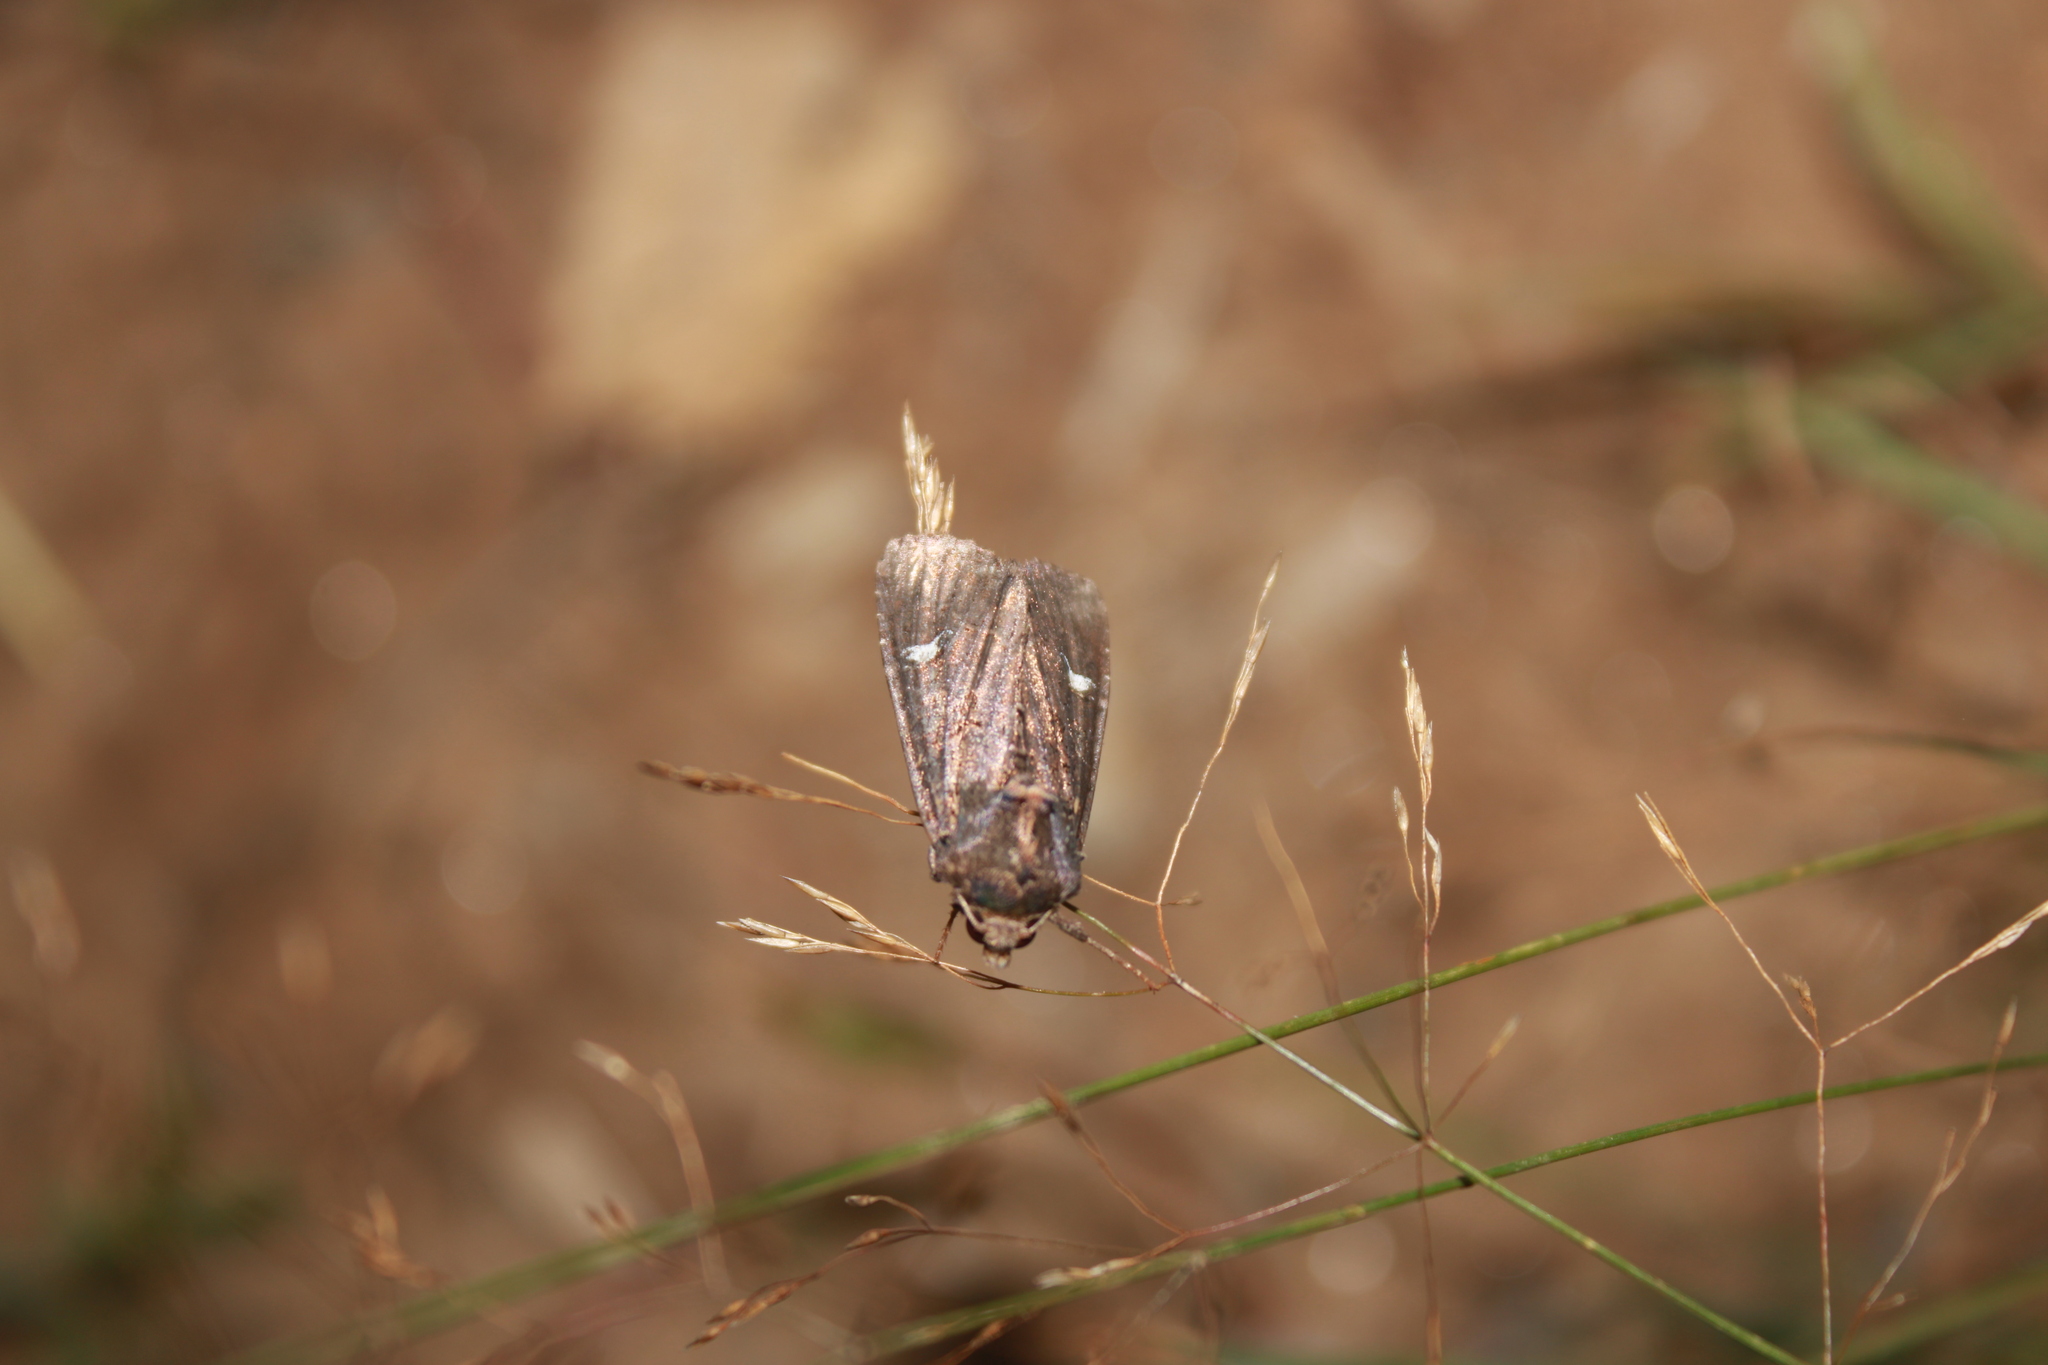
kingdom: Animalia
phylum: Arthropoda
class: Insecta
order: Lepidoptera
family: Noctuidae
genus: Apamea
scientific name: Apamea cogitata
